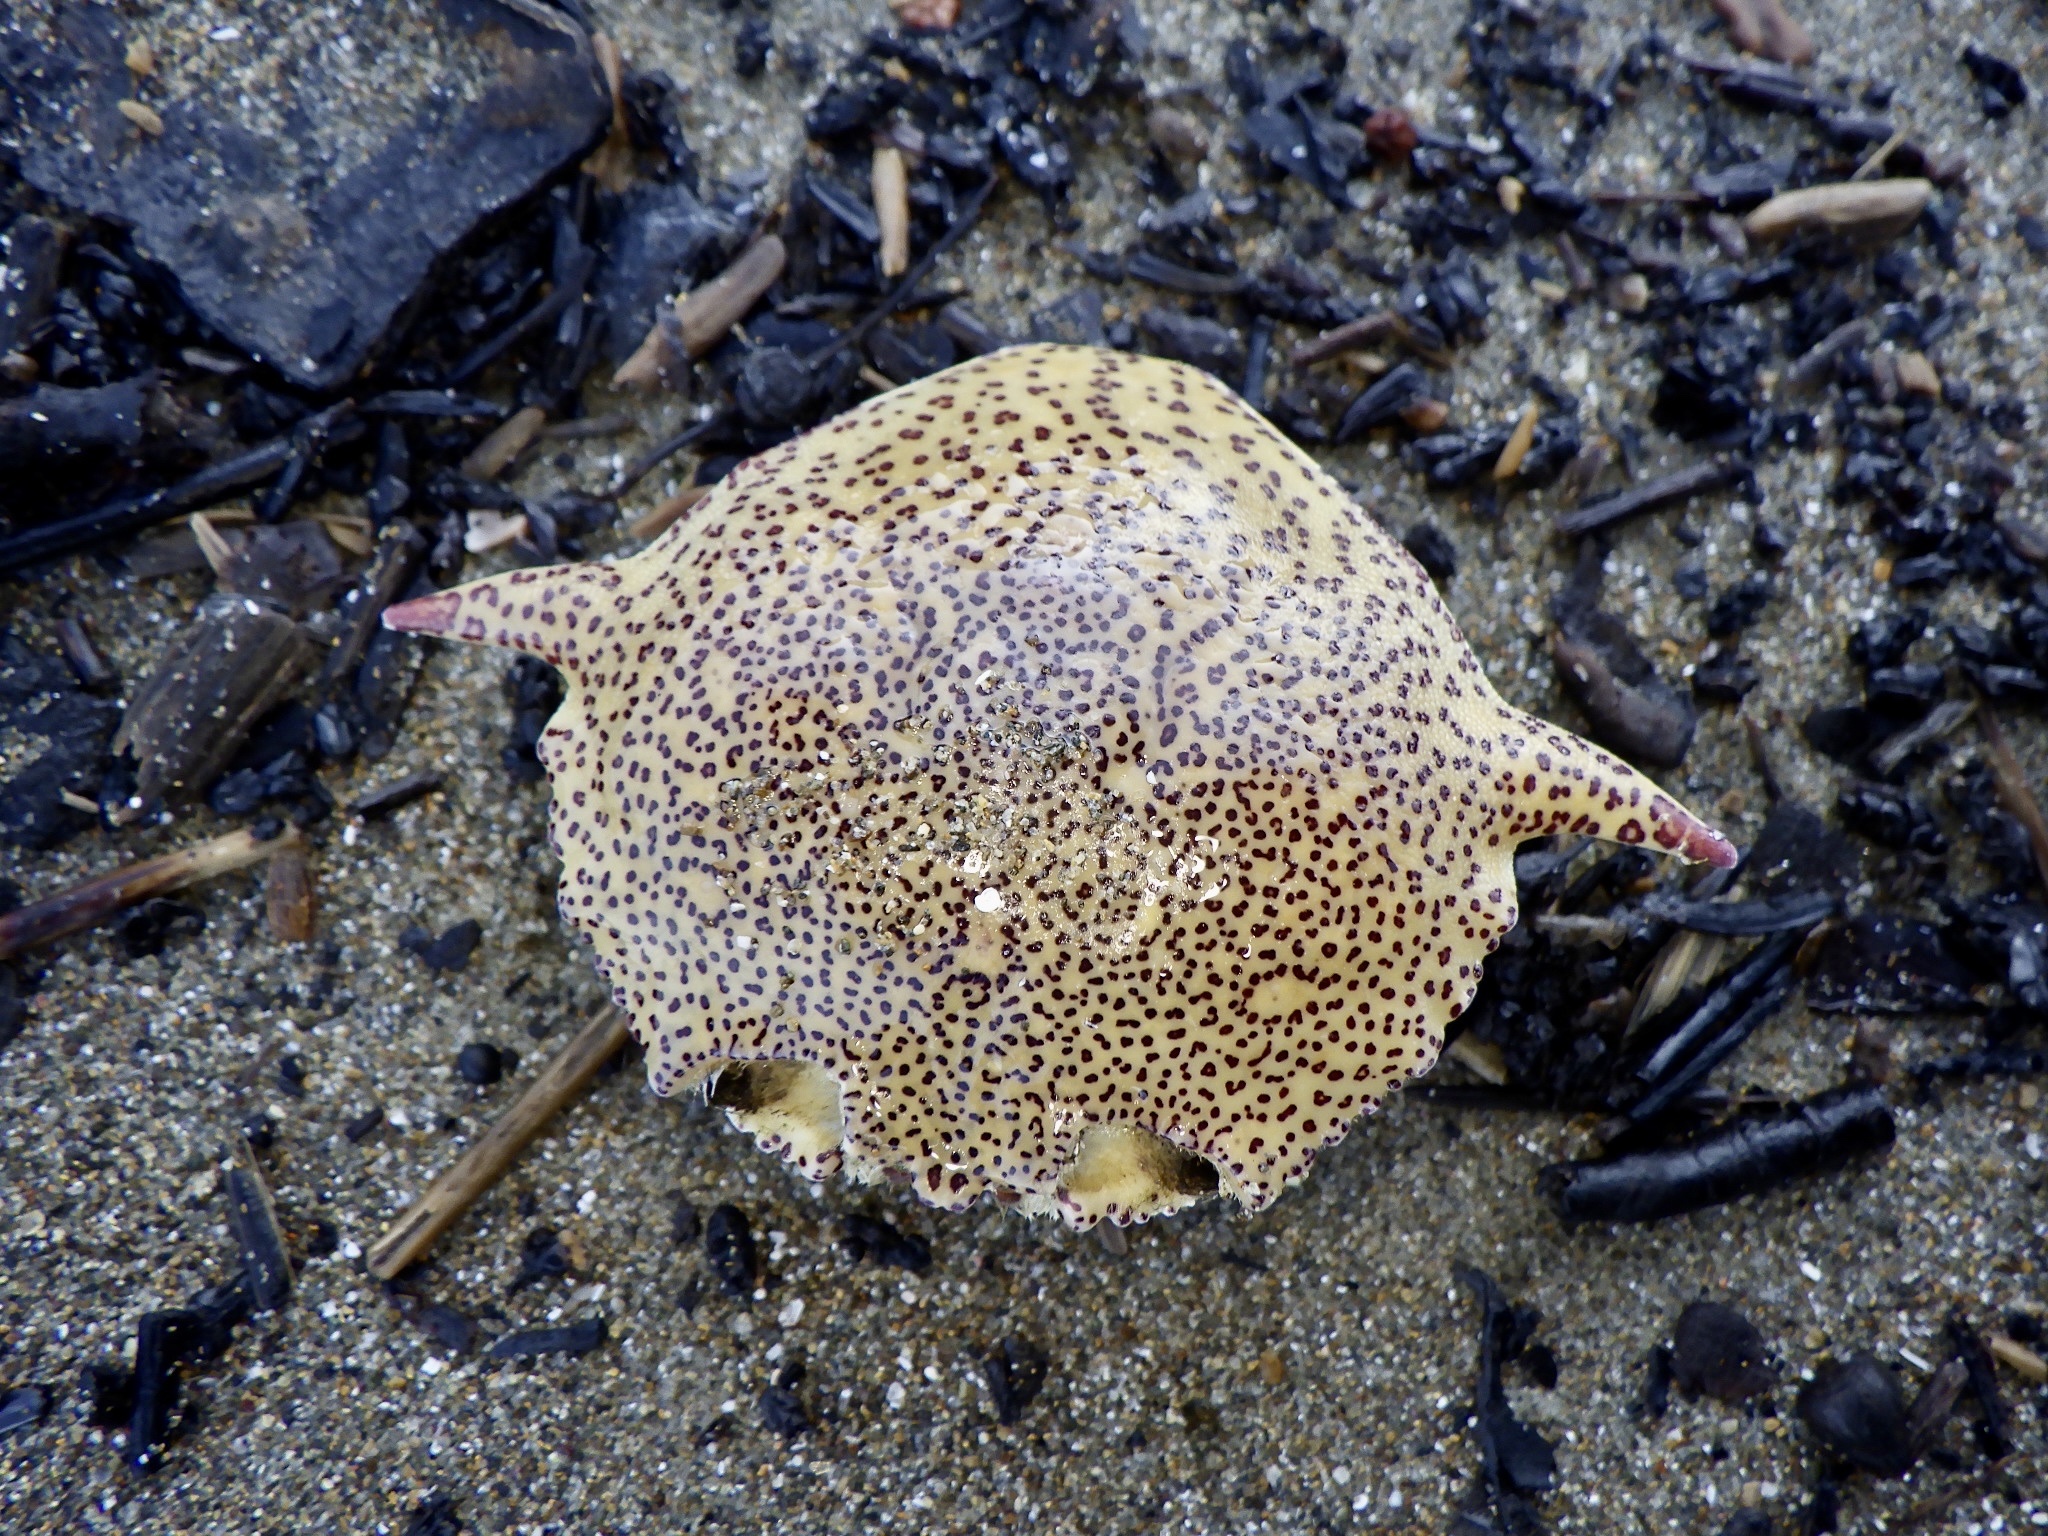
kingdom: Animalia
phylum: Arthropoda
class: Malacostraca
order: Decapoda
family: Matutidae
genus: Matuta
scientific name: Matuta victor
